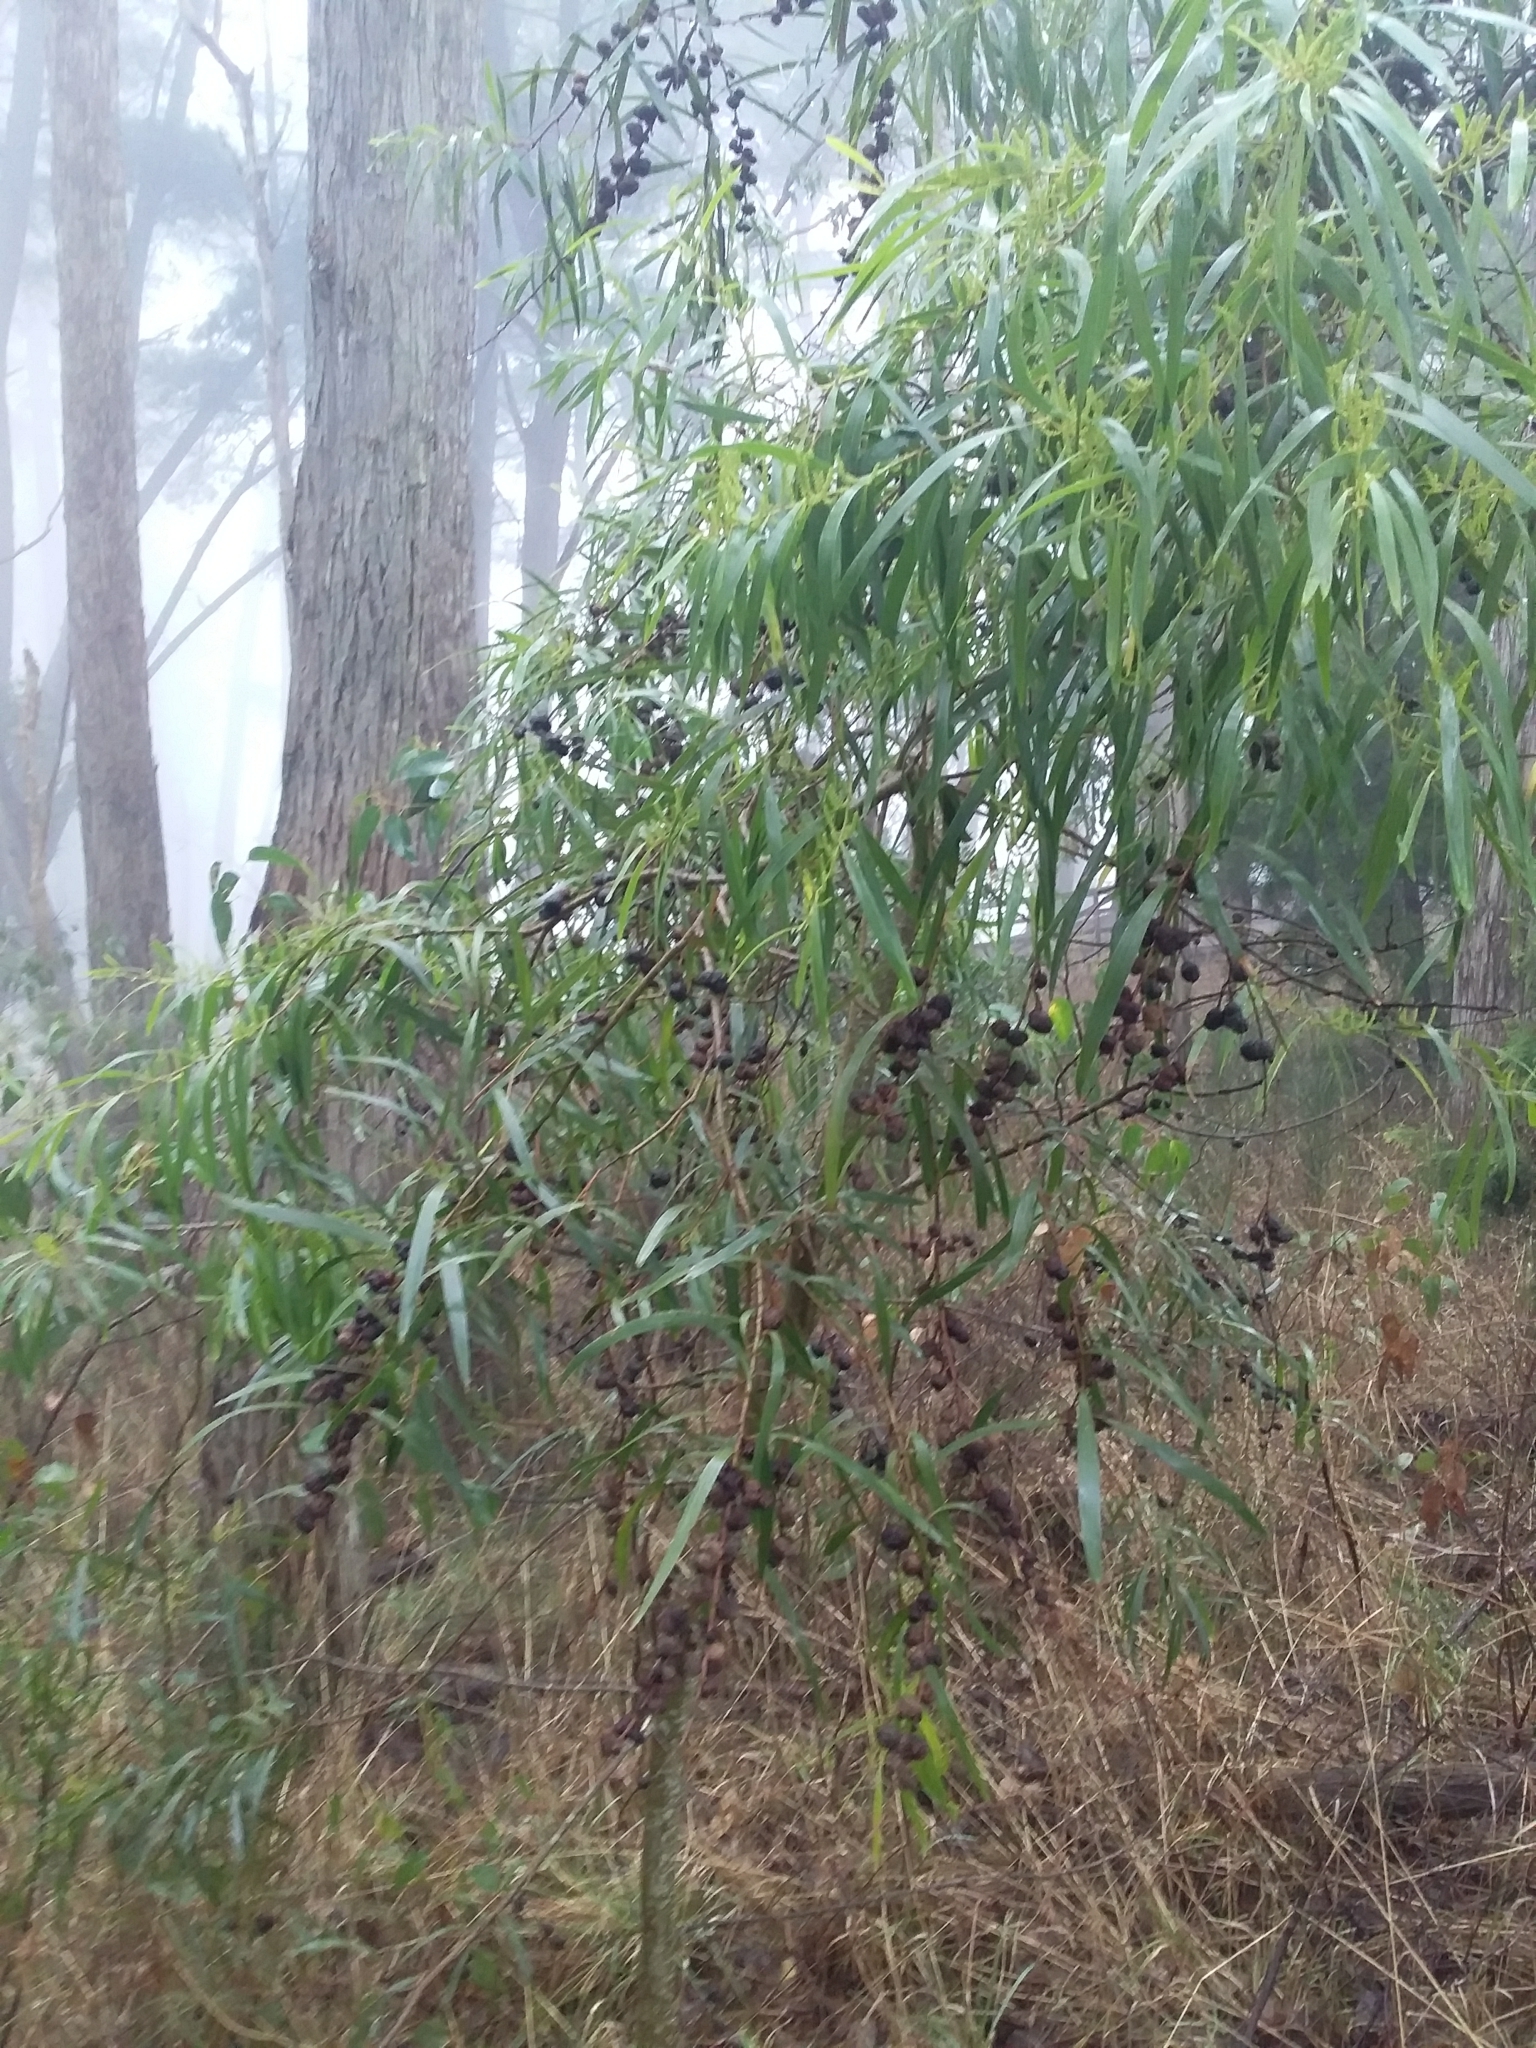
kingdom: Animalia
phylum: Arthropoda
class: Insecta
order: Hymenoptera
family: Pteromalidae
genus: Trichilogaster
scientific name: Trichilogaster acaciaelongifoliae
